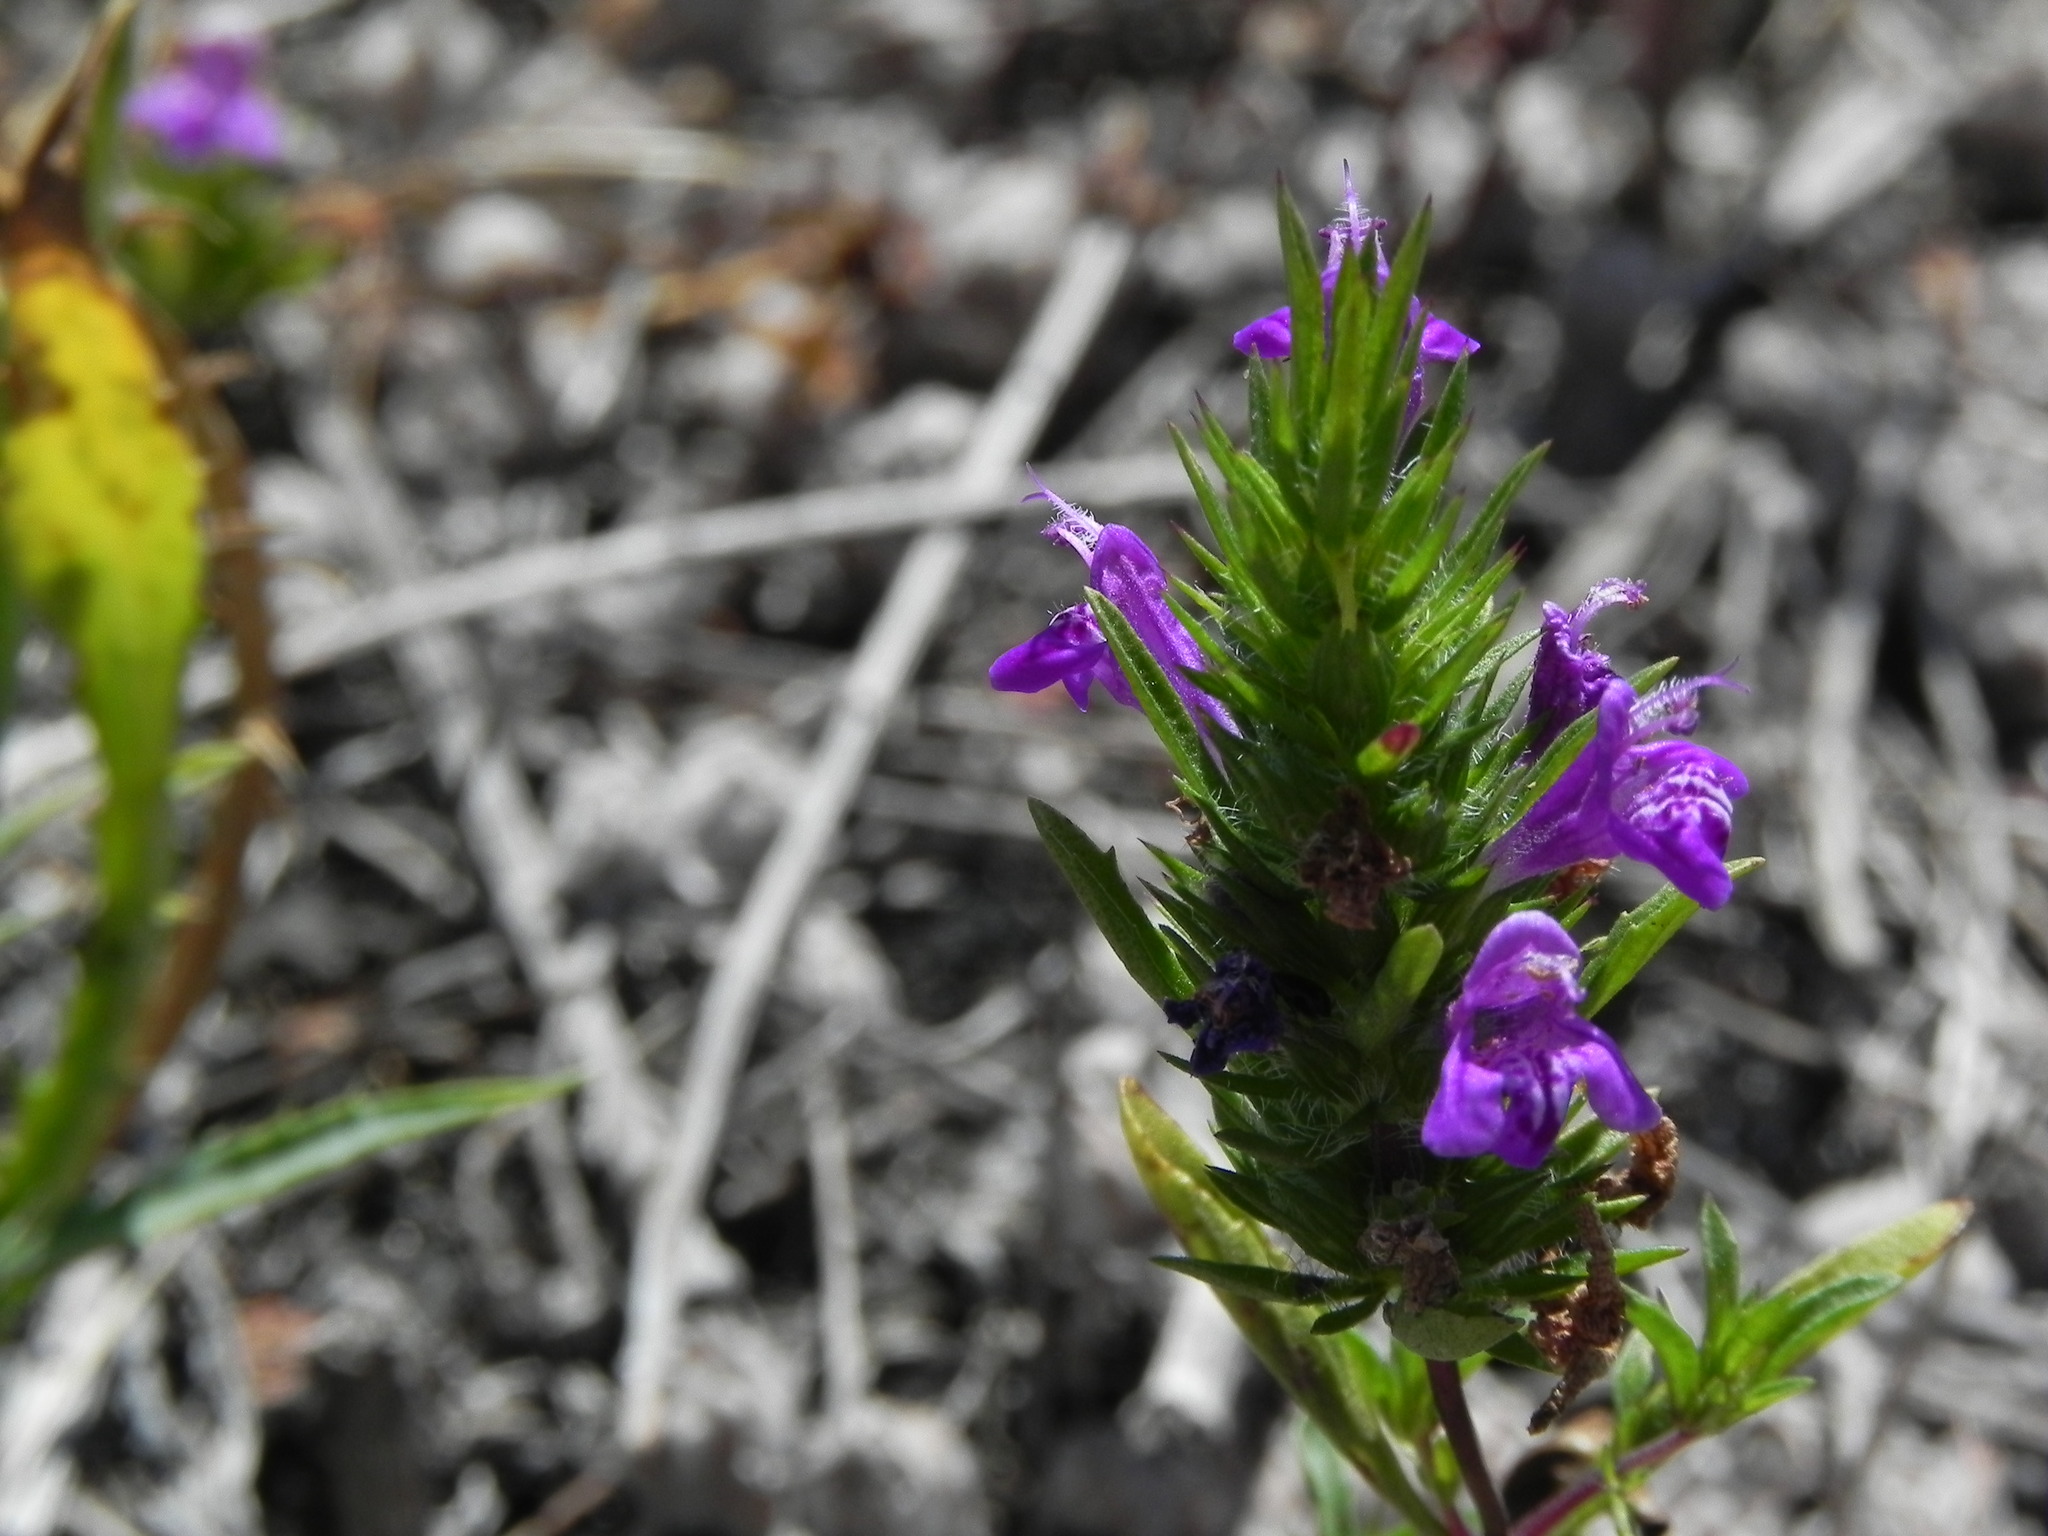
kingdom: Plantae
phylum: Tracheophyta
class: Magnoliopsida
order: Lamiales
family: Lamiaceae
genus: Pogogyne
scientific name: Pogogyne nudiuscula
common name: Otay mesa-mint
